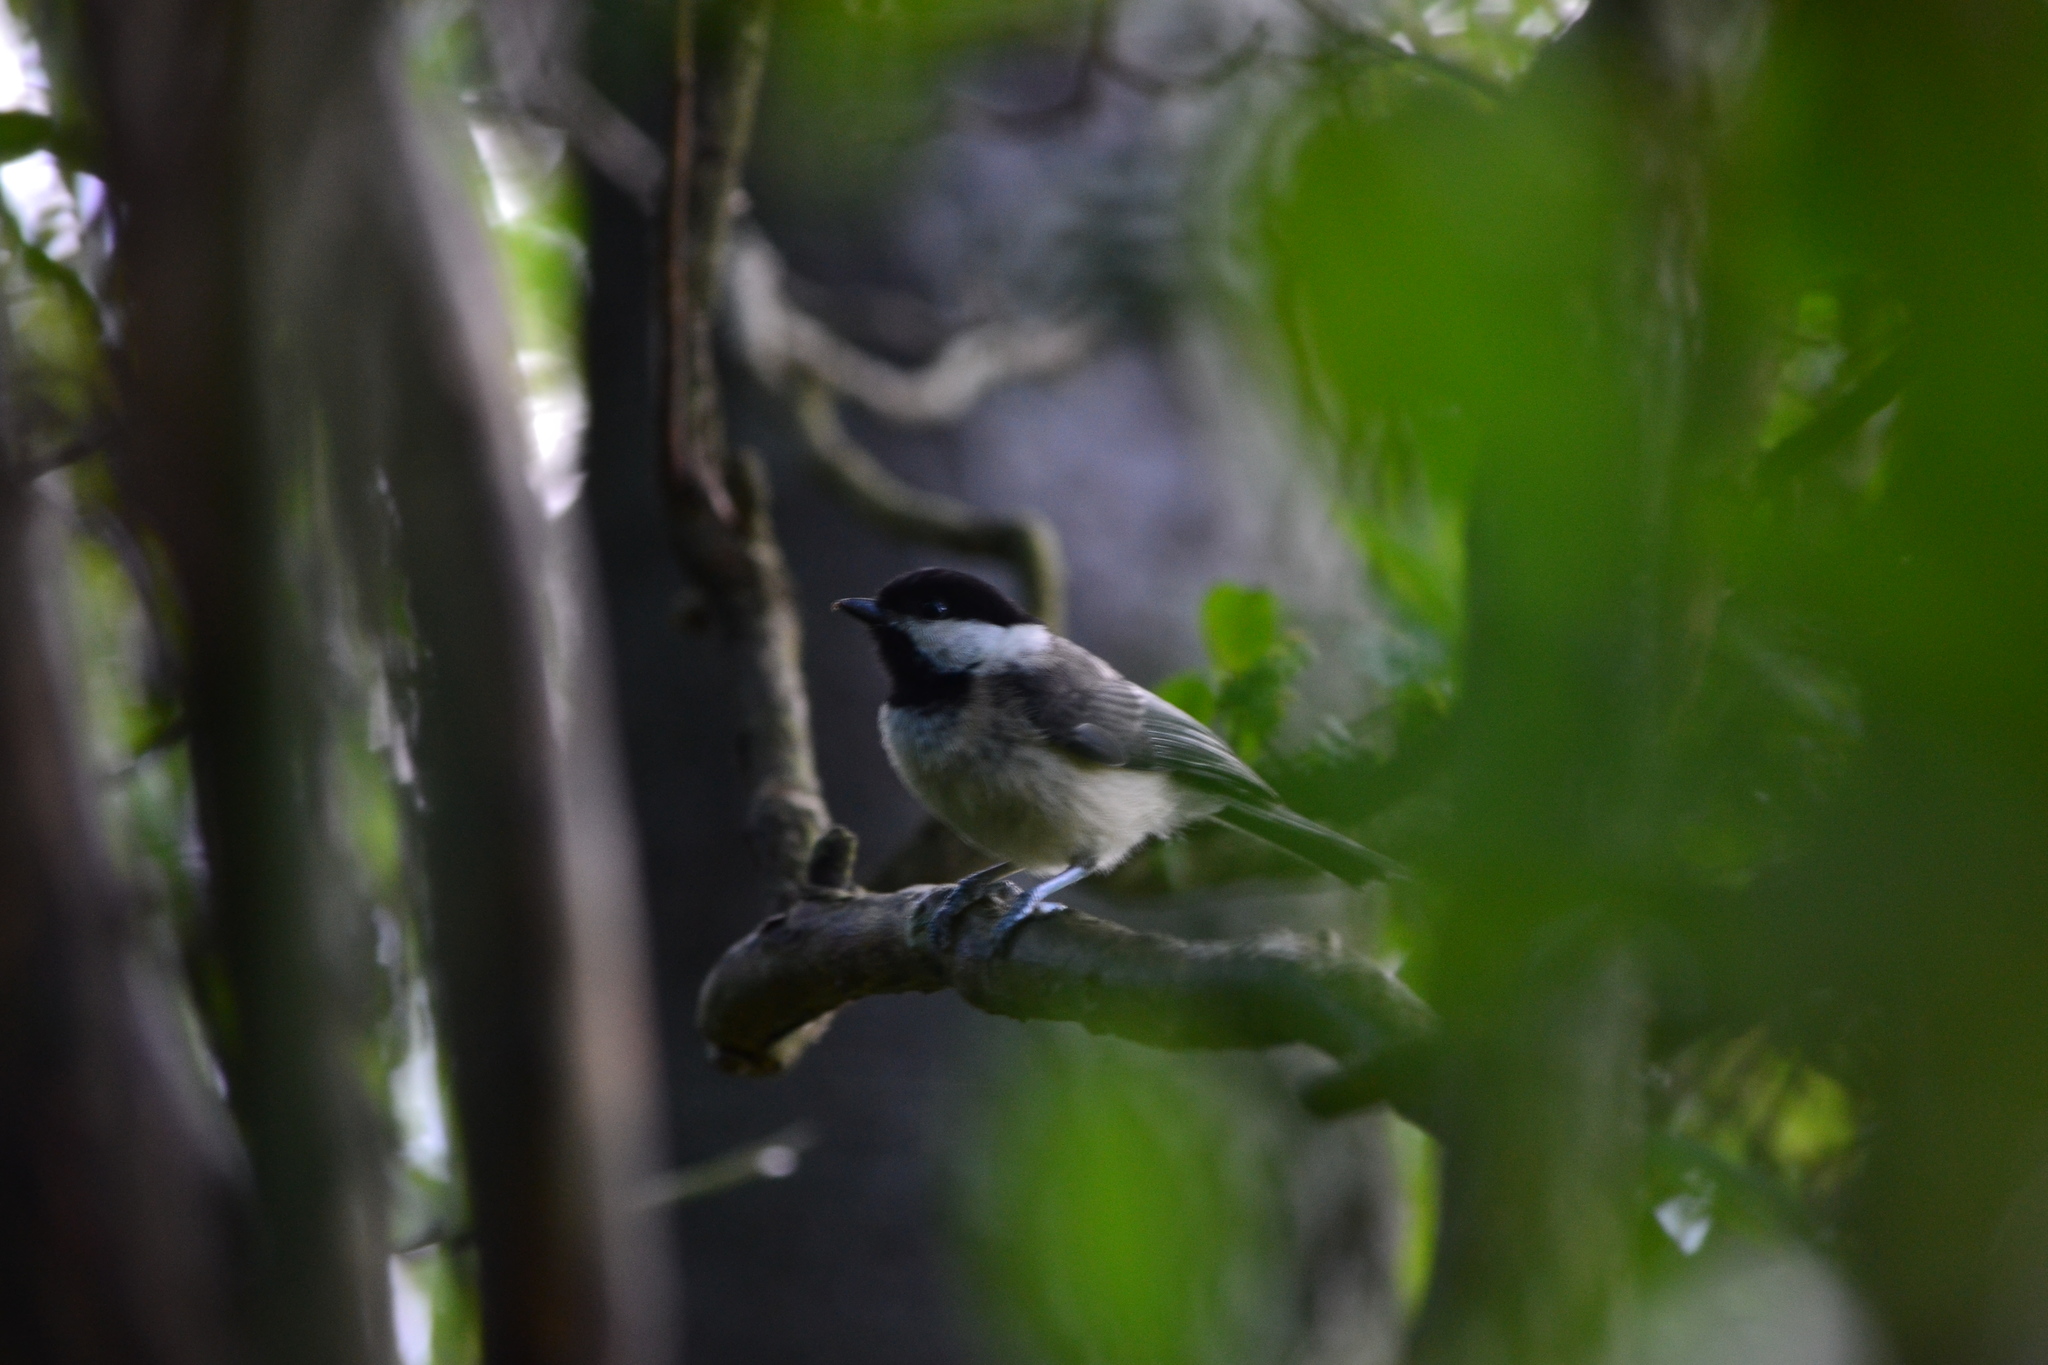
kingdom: Animalia
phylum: Chordata
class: Aves
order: Passeriformes
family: Paridae
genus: Poecile
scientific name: Poecile carolinensis
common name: Carolina chickadee
